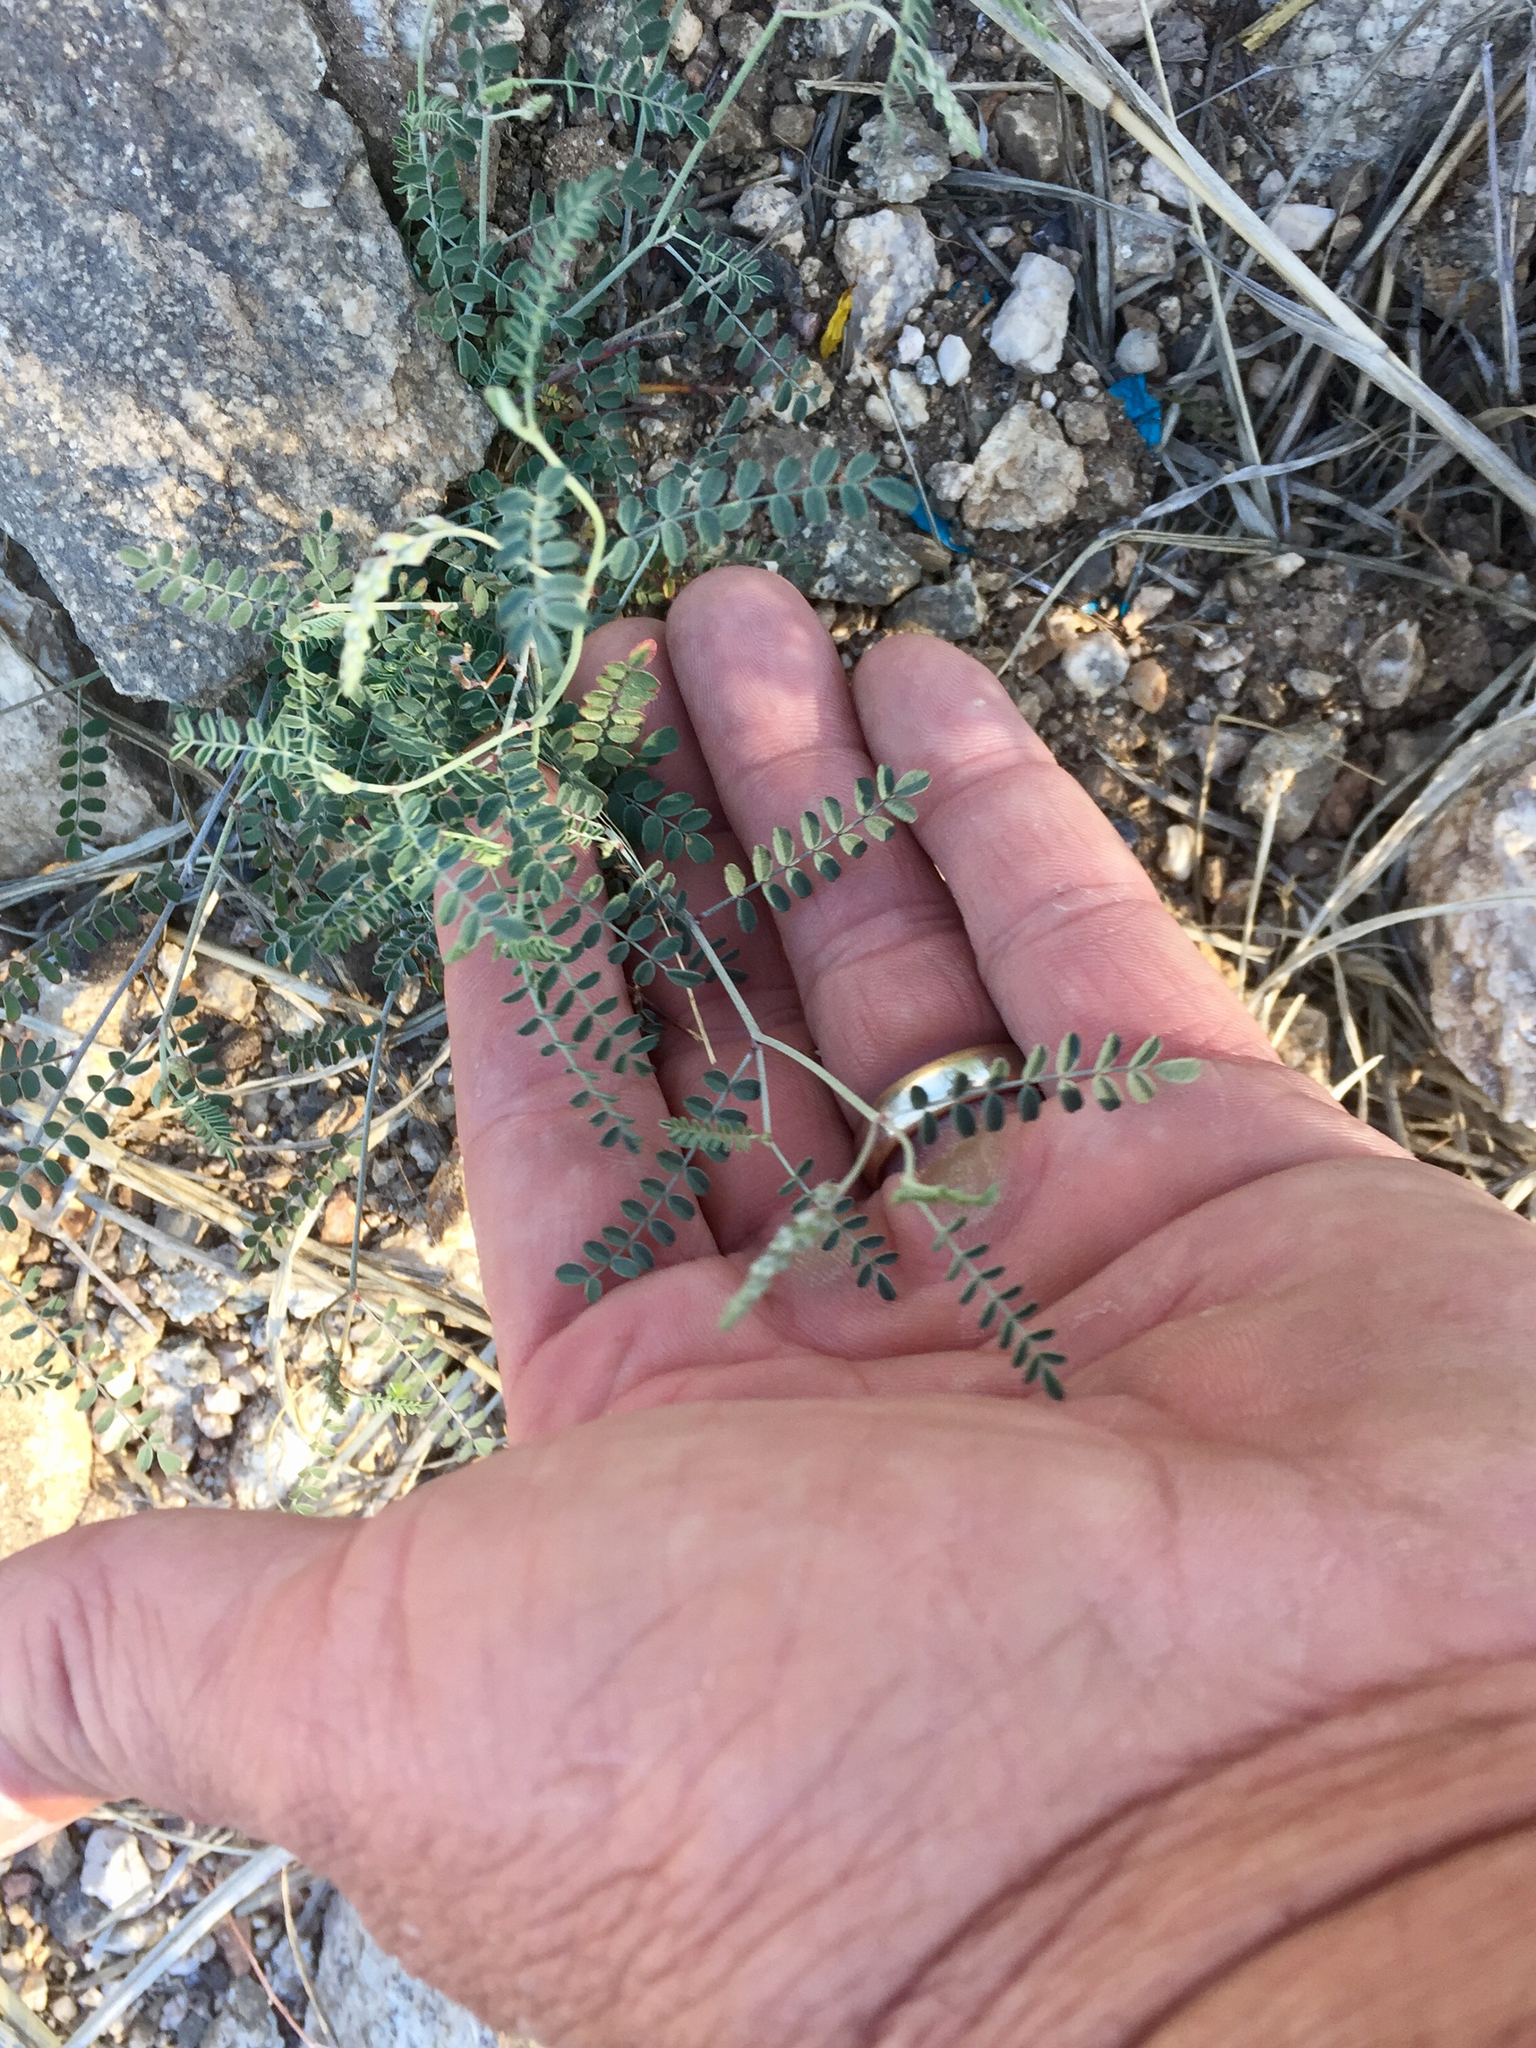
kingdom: Plantae
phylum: Tracheophyta
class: Magnoliopsida
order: Fabales
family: Fabaceae
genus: Marina
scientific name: Marina parryi
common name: Parry's marina
